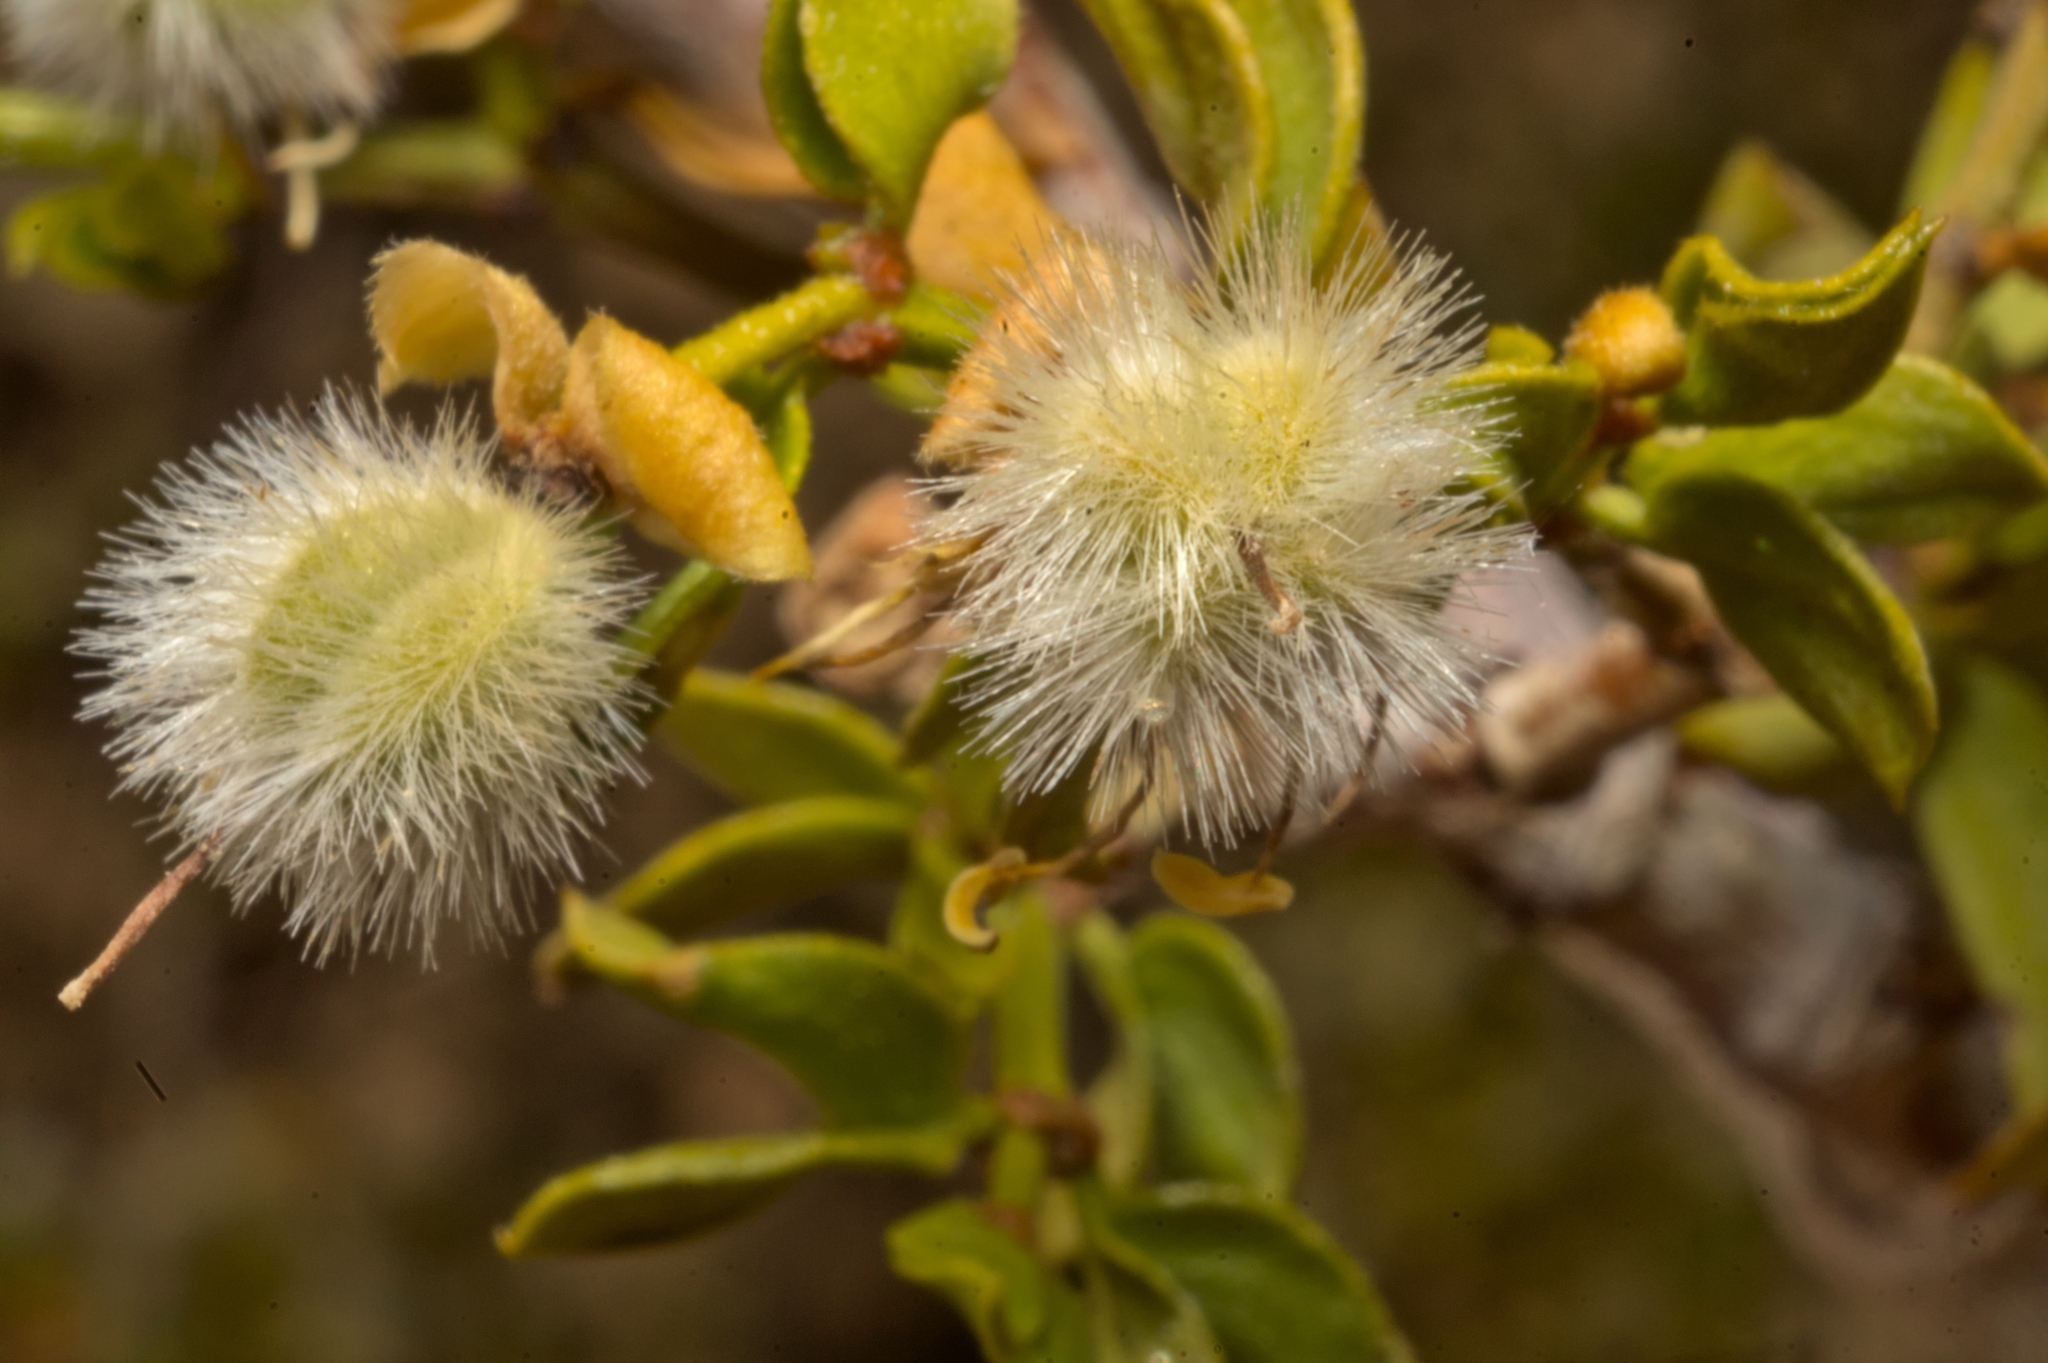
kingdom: Plantae
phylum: Tracheophyta
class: Magnoliopsida
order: Zygophyllales
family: Zygophyllaceae
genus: Larrea
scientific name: Larrea tridentata
